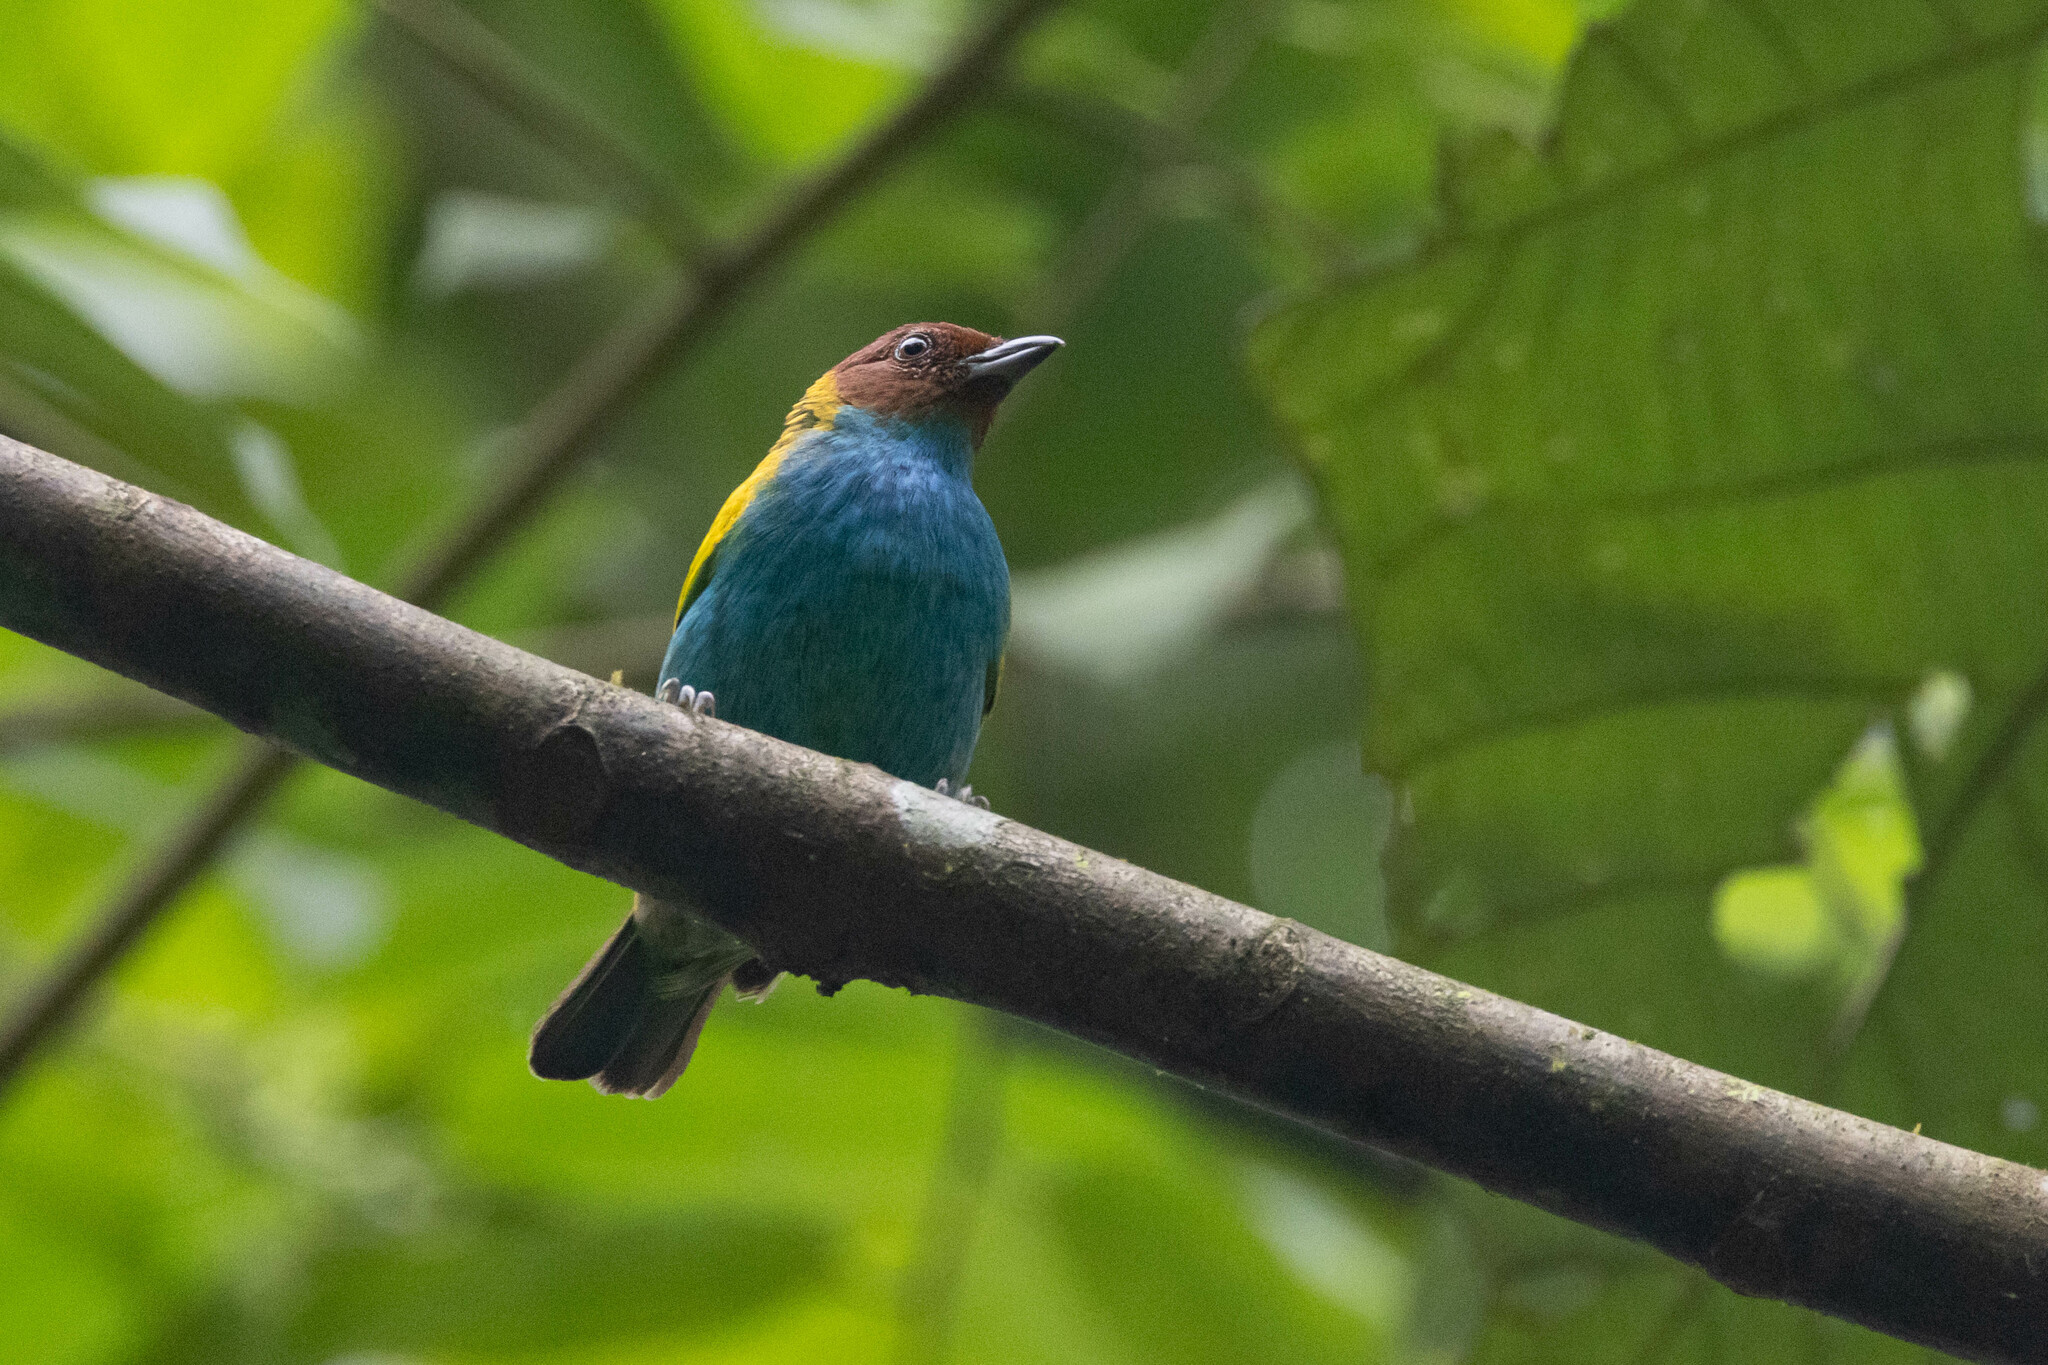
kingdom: Animalia
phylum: Chordata
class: Aves
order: Passeriformes
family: Thraupidae
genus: Tangara
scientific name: Tangara gyrola
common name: Bay-headed tanager
